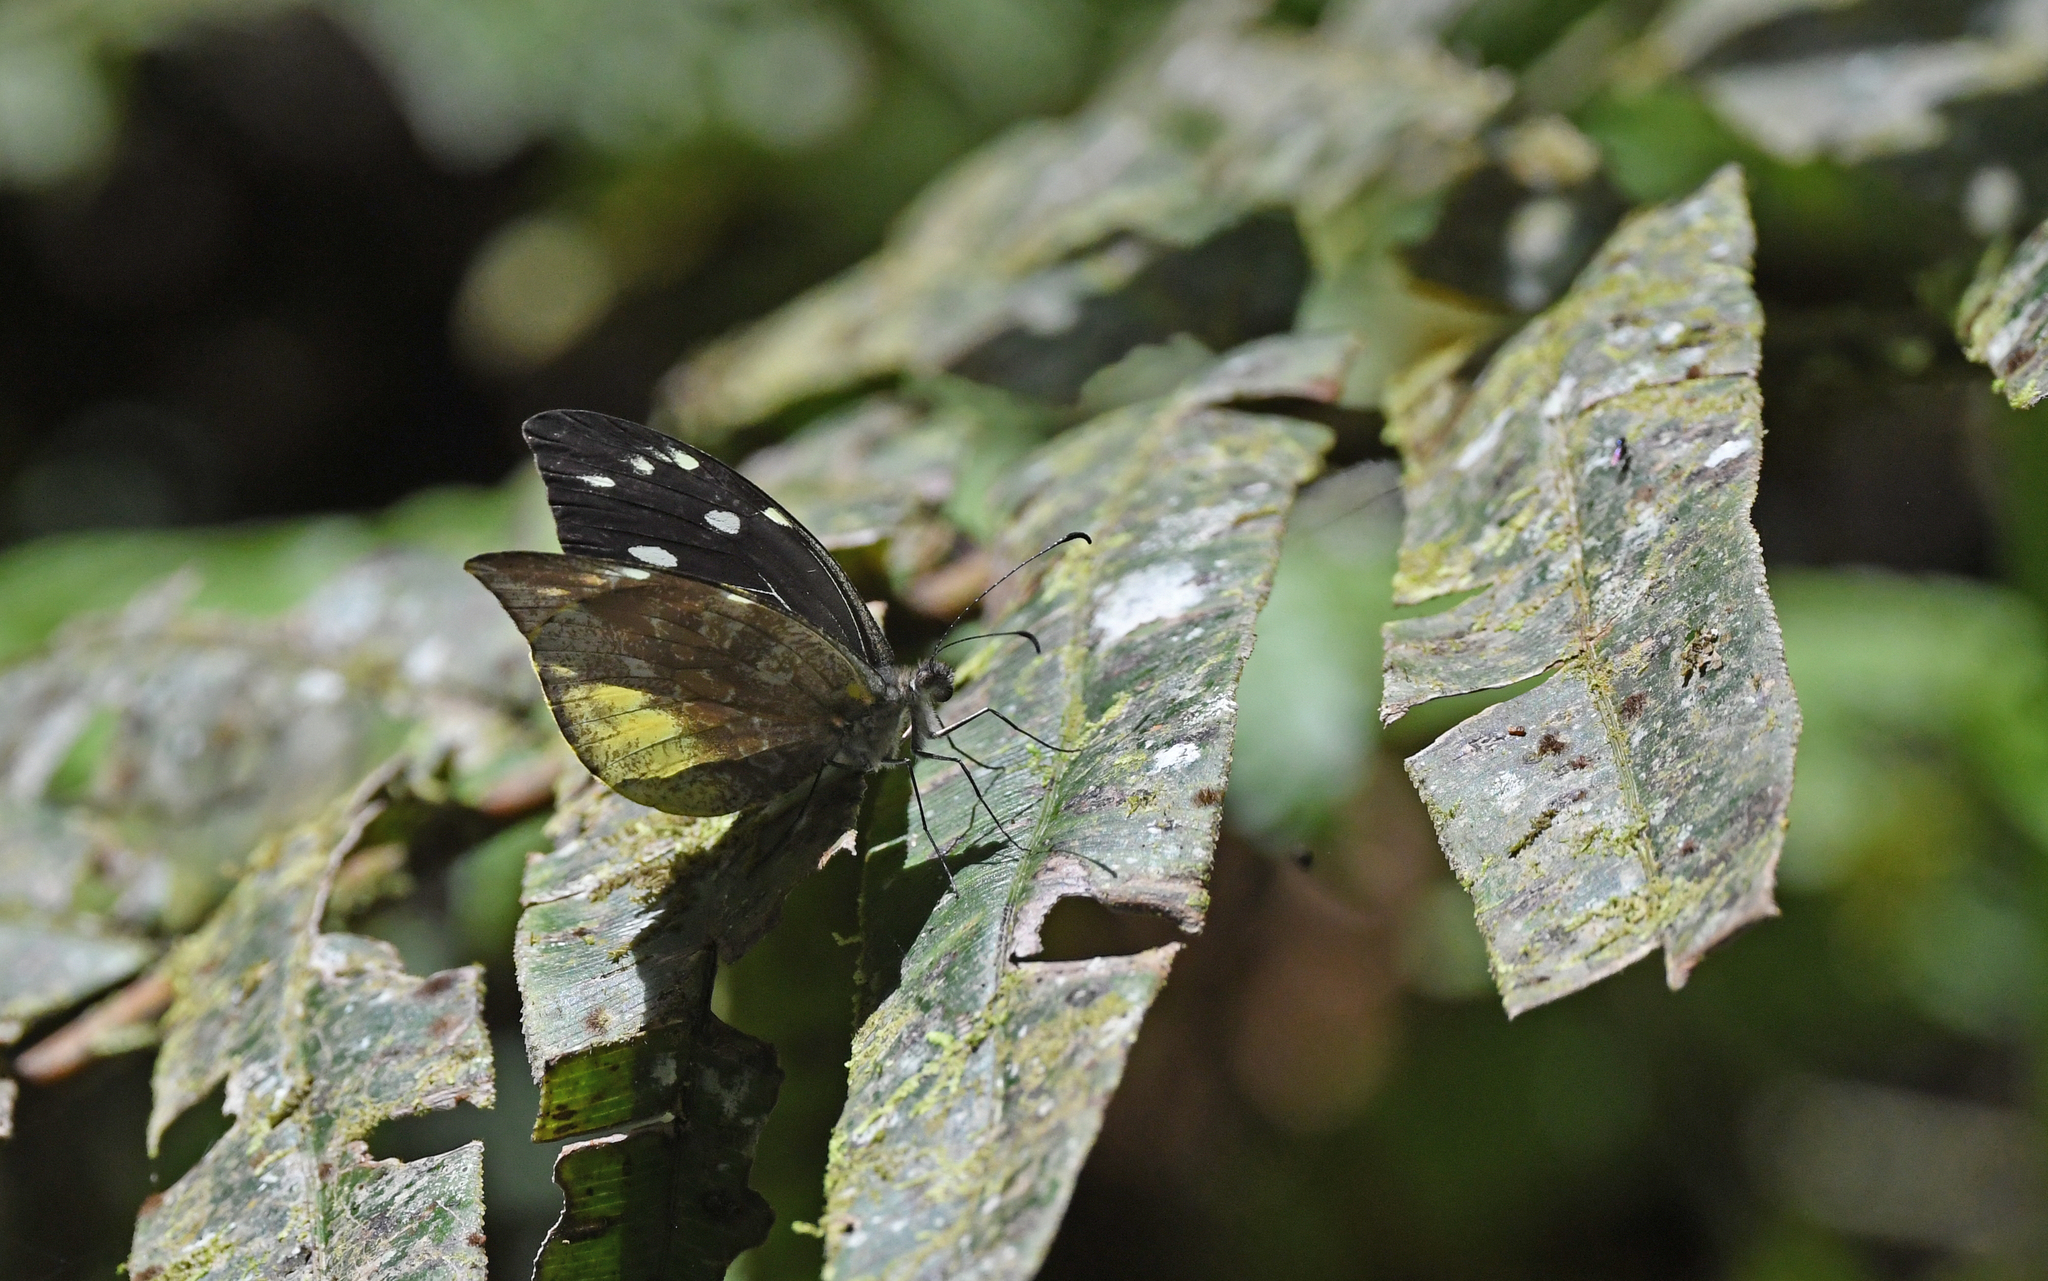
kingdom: Animalia
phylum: Arthropoda
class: Insecta
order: Lepidoptera
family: Pieridae
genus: Lieinix
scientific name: Lieinix nemesis
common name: Frosted mimic-white
